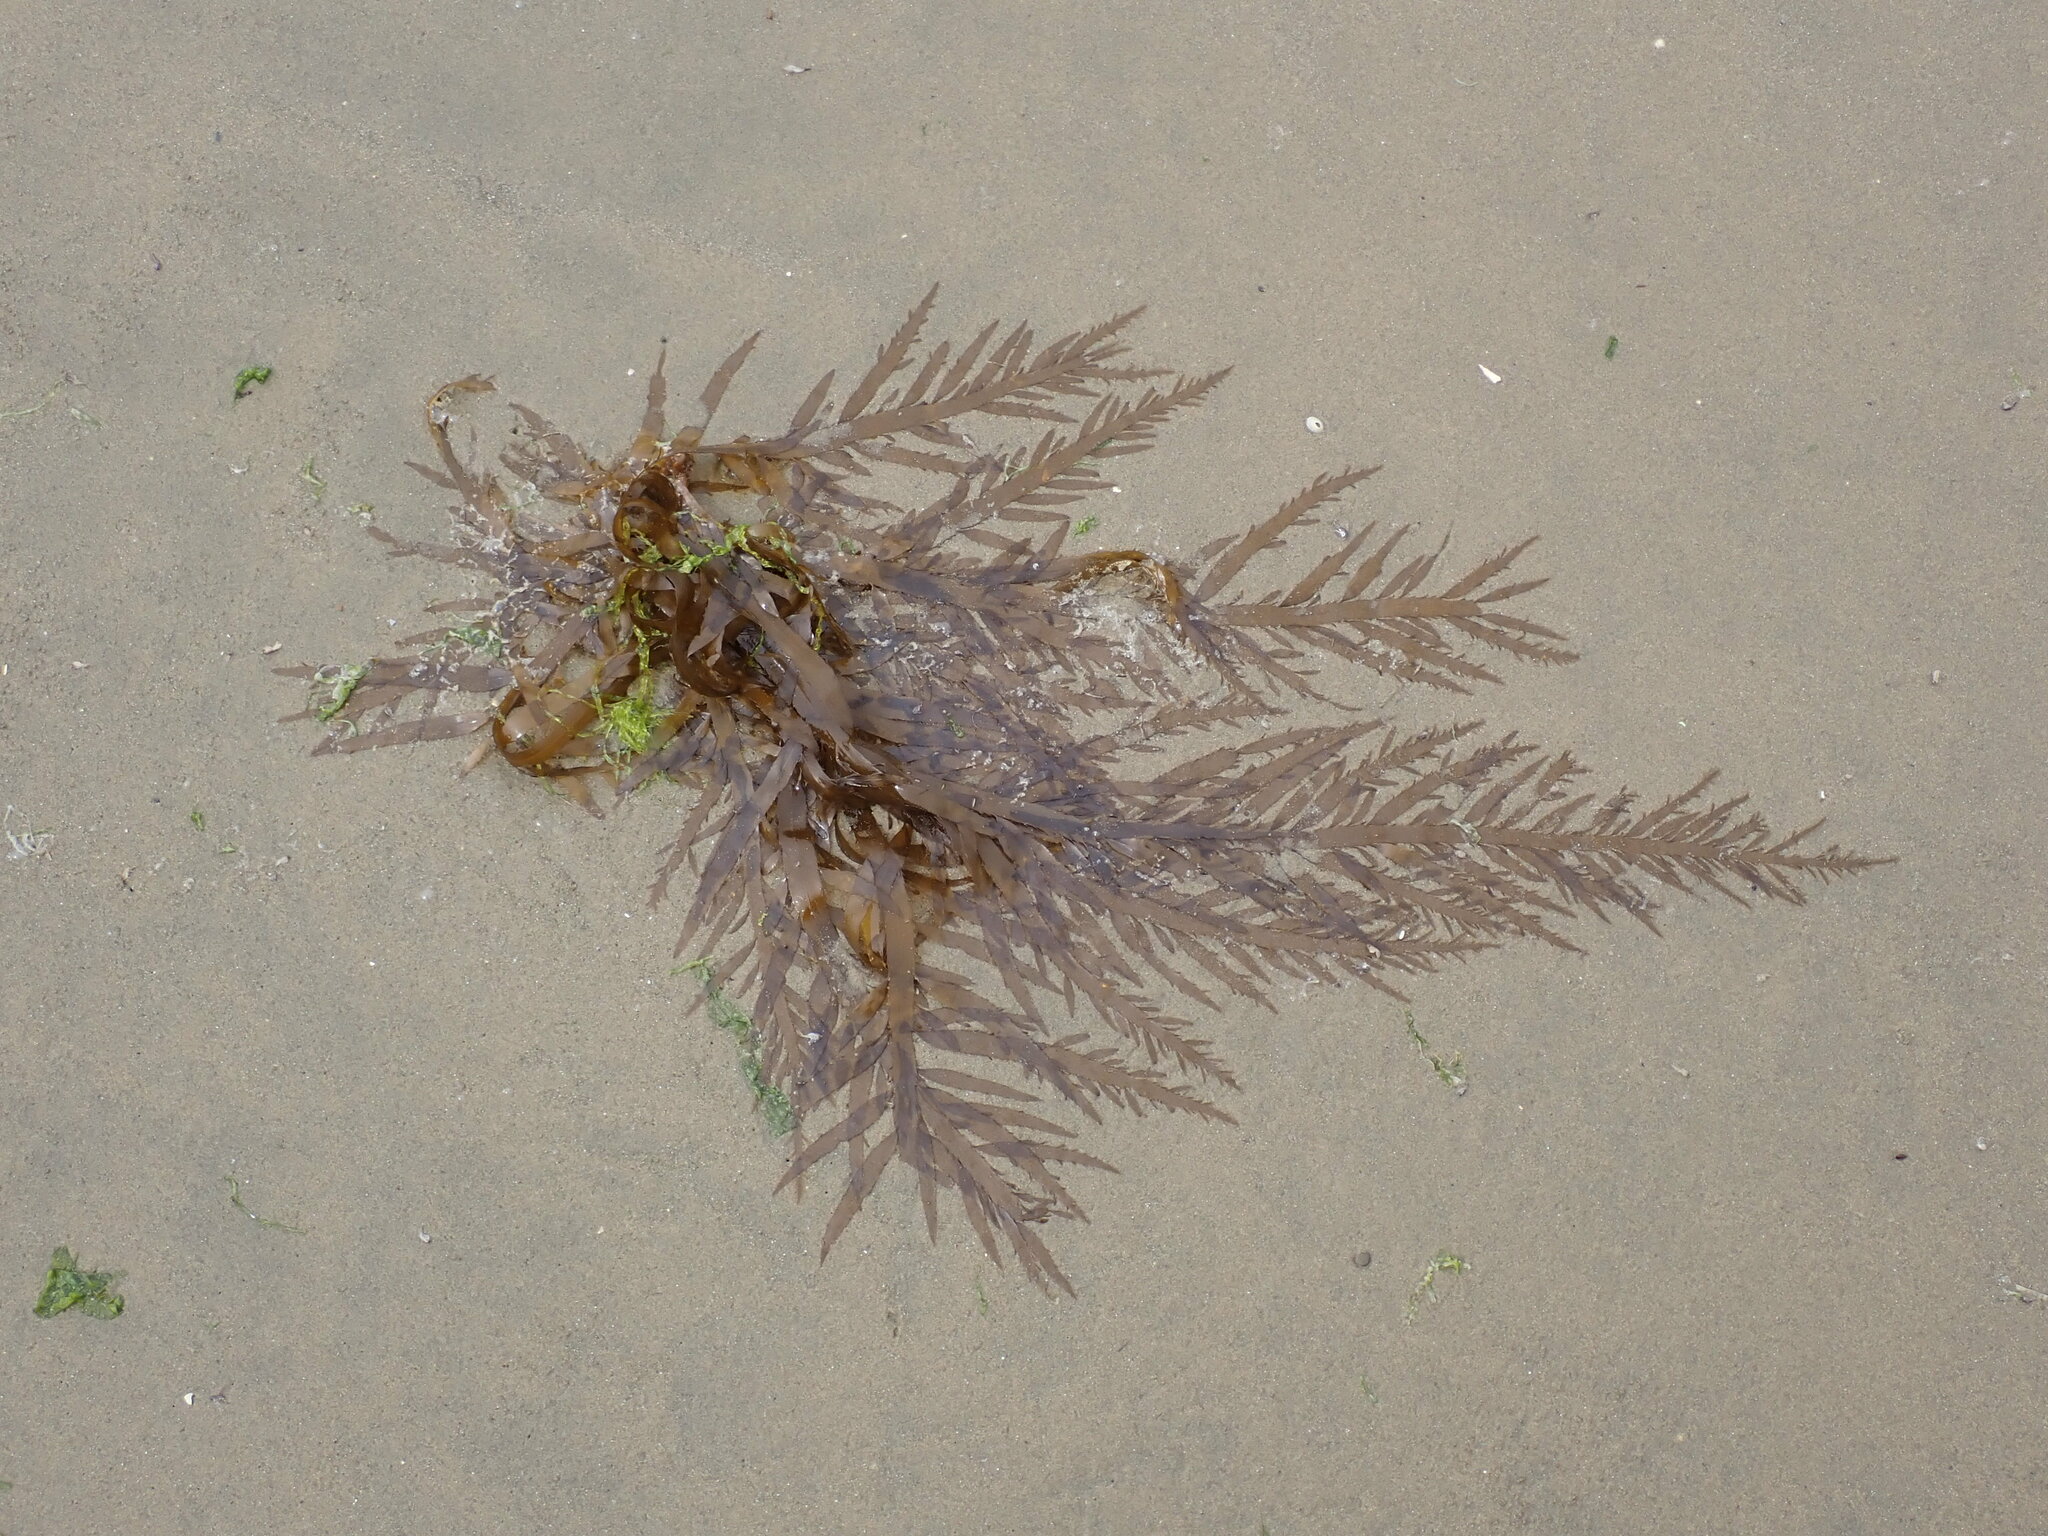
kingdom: Chromista
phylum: Ochrophyta
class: Phaeophyceae
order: Desmarestiales
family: Desmarestiaceae
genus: Desmarestia
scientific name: Desmarestia ligulata
